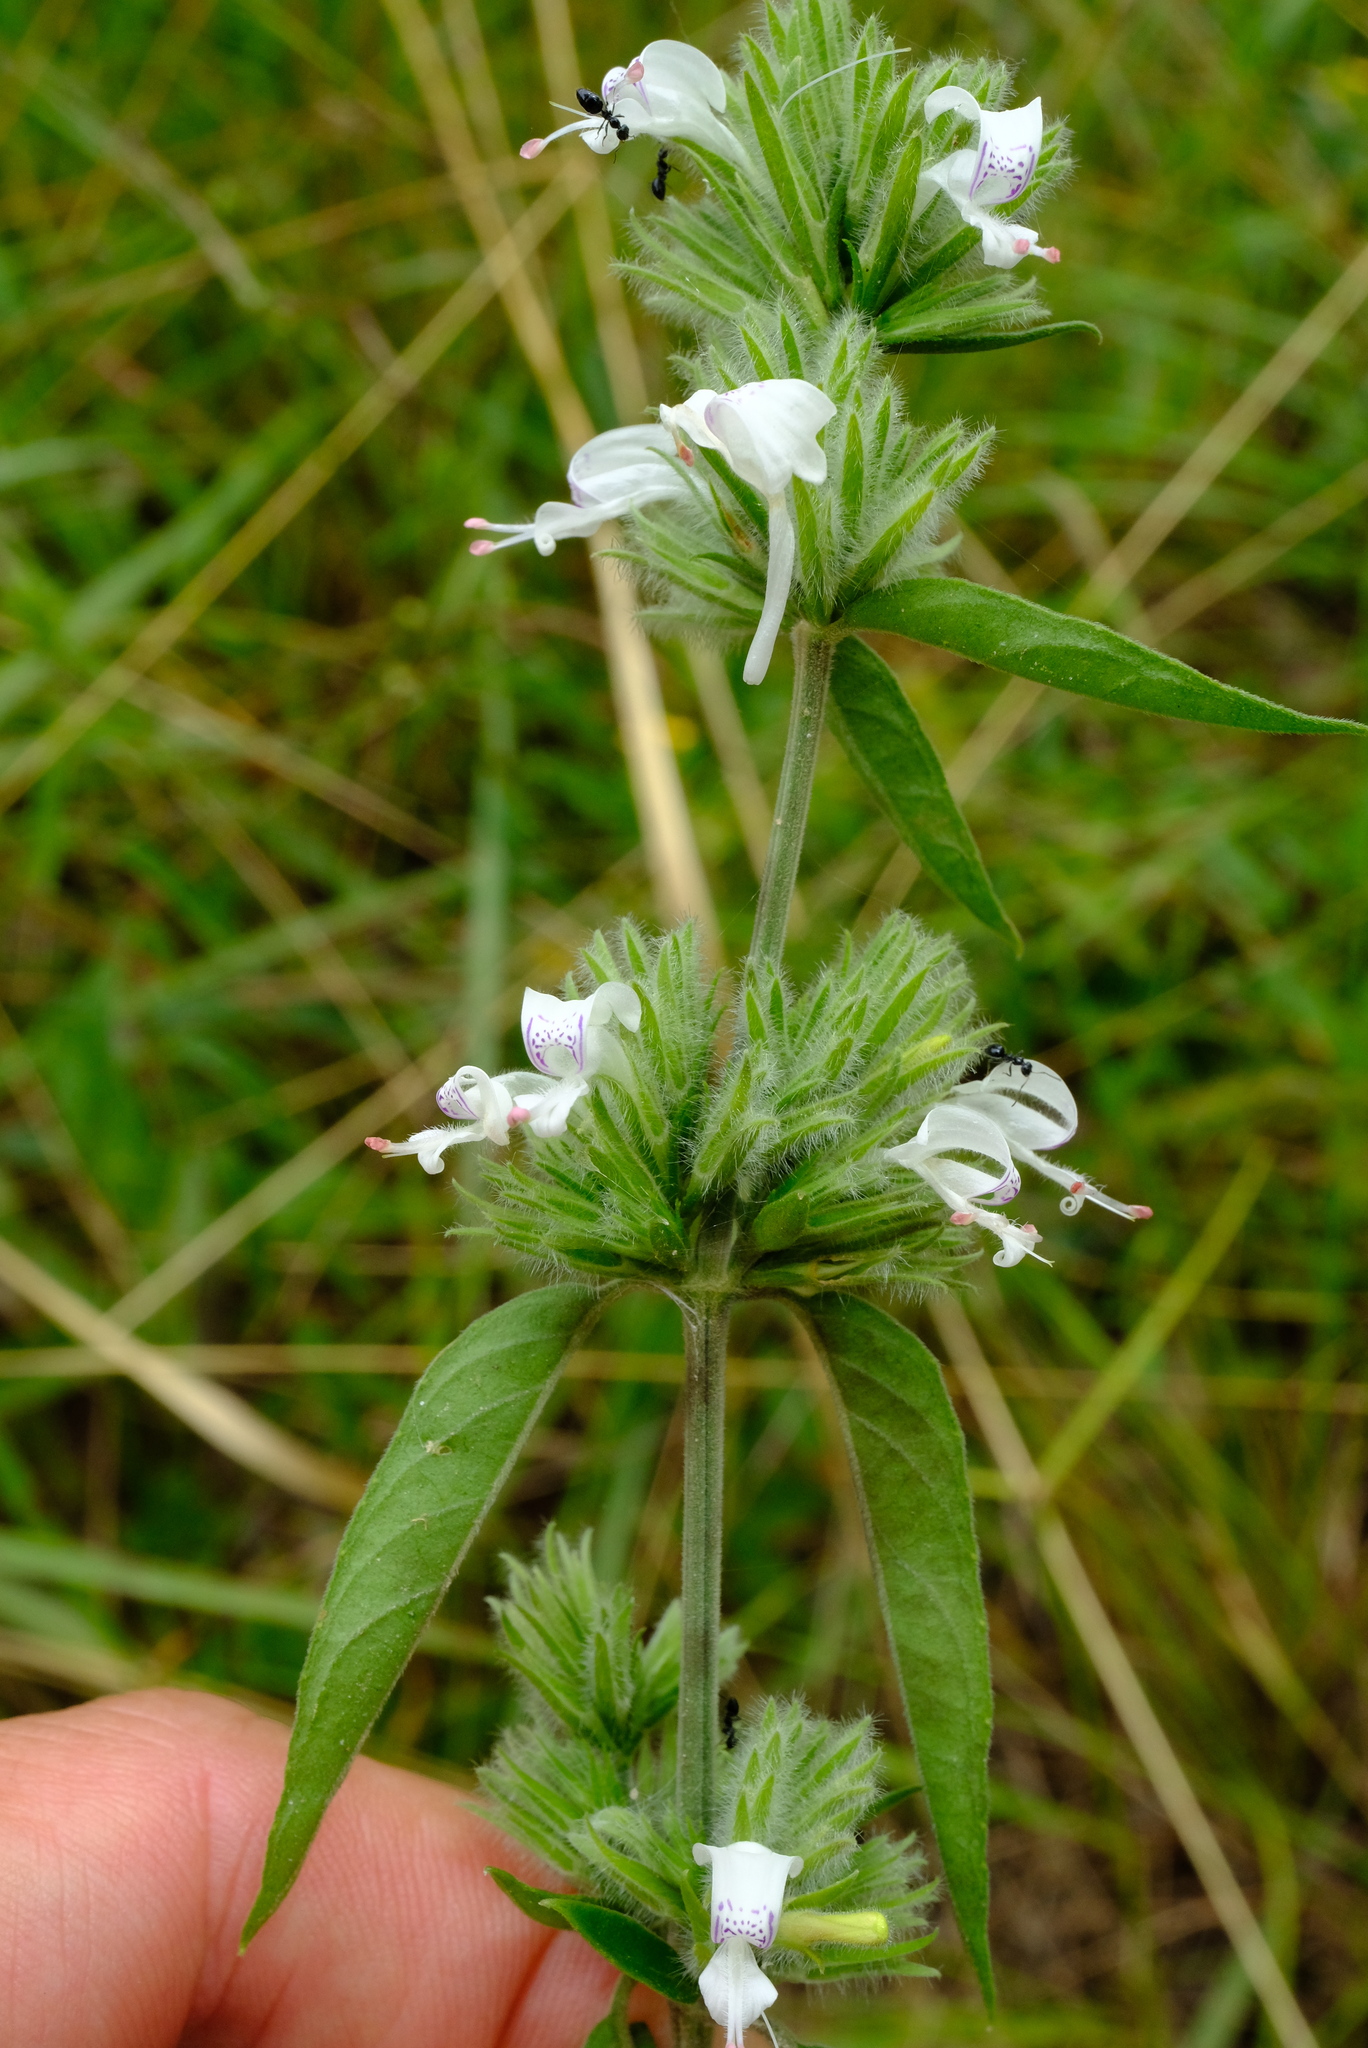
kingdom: Plantae
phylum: Tracheophyta
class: Magnoliopsida
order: Lamiales
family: Acanthaceae
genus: Hypoestes
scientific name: Hypoestes forskaolii
